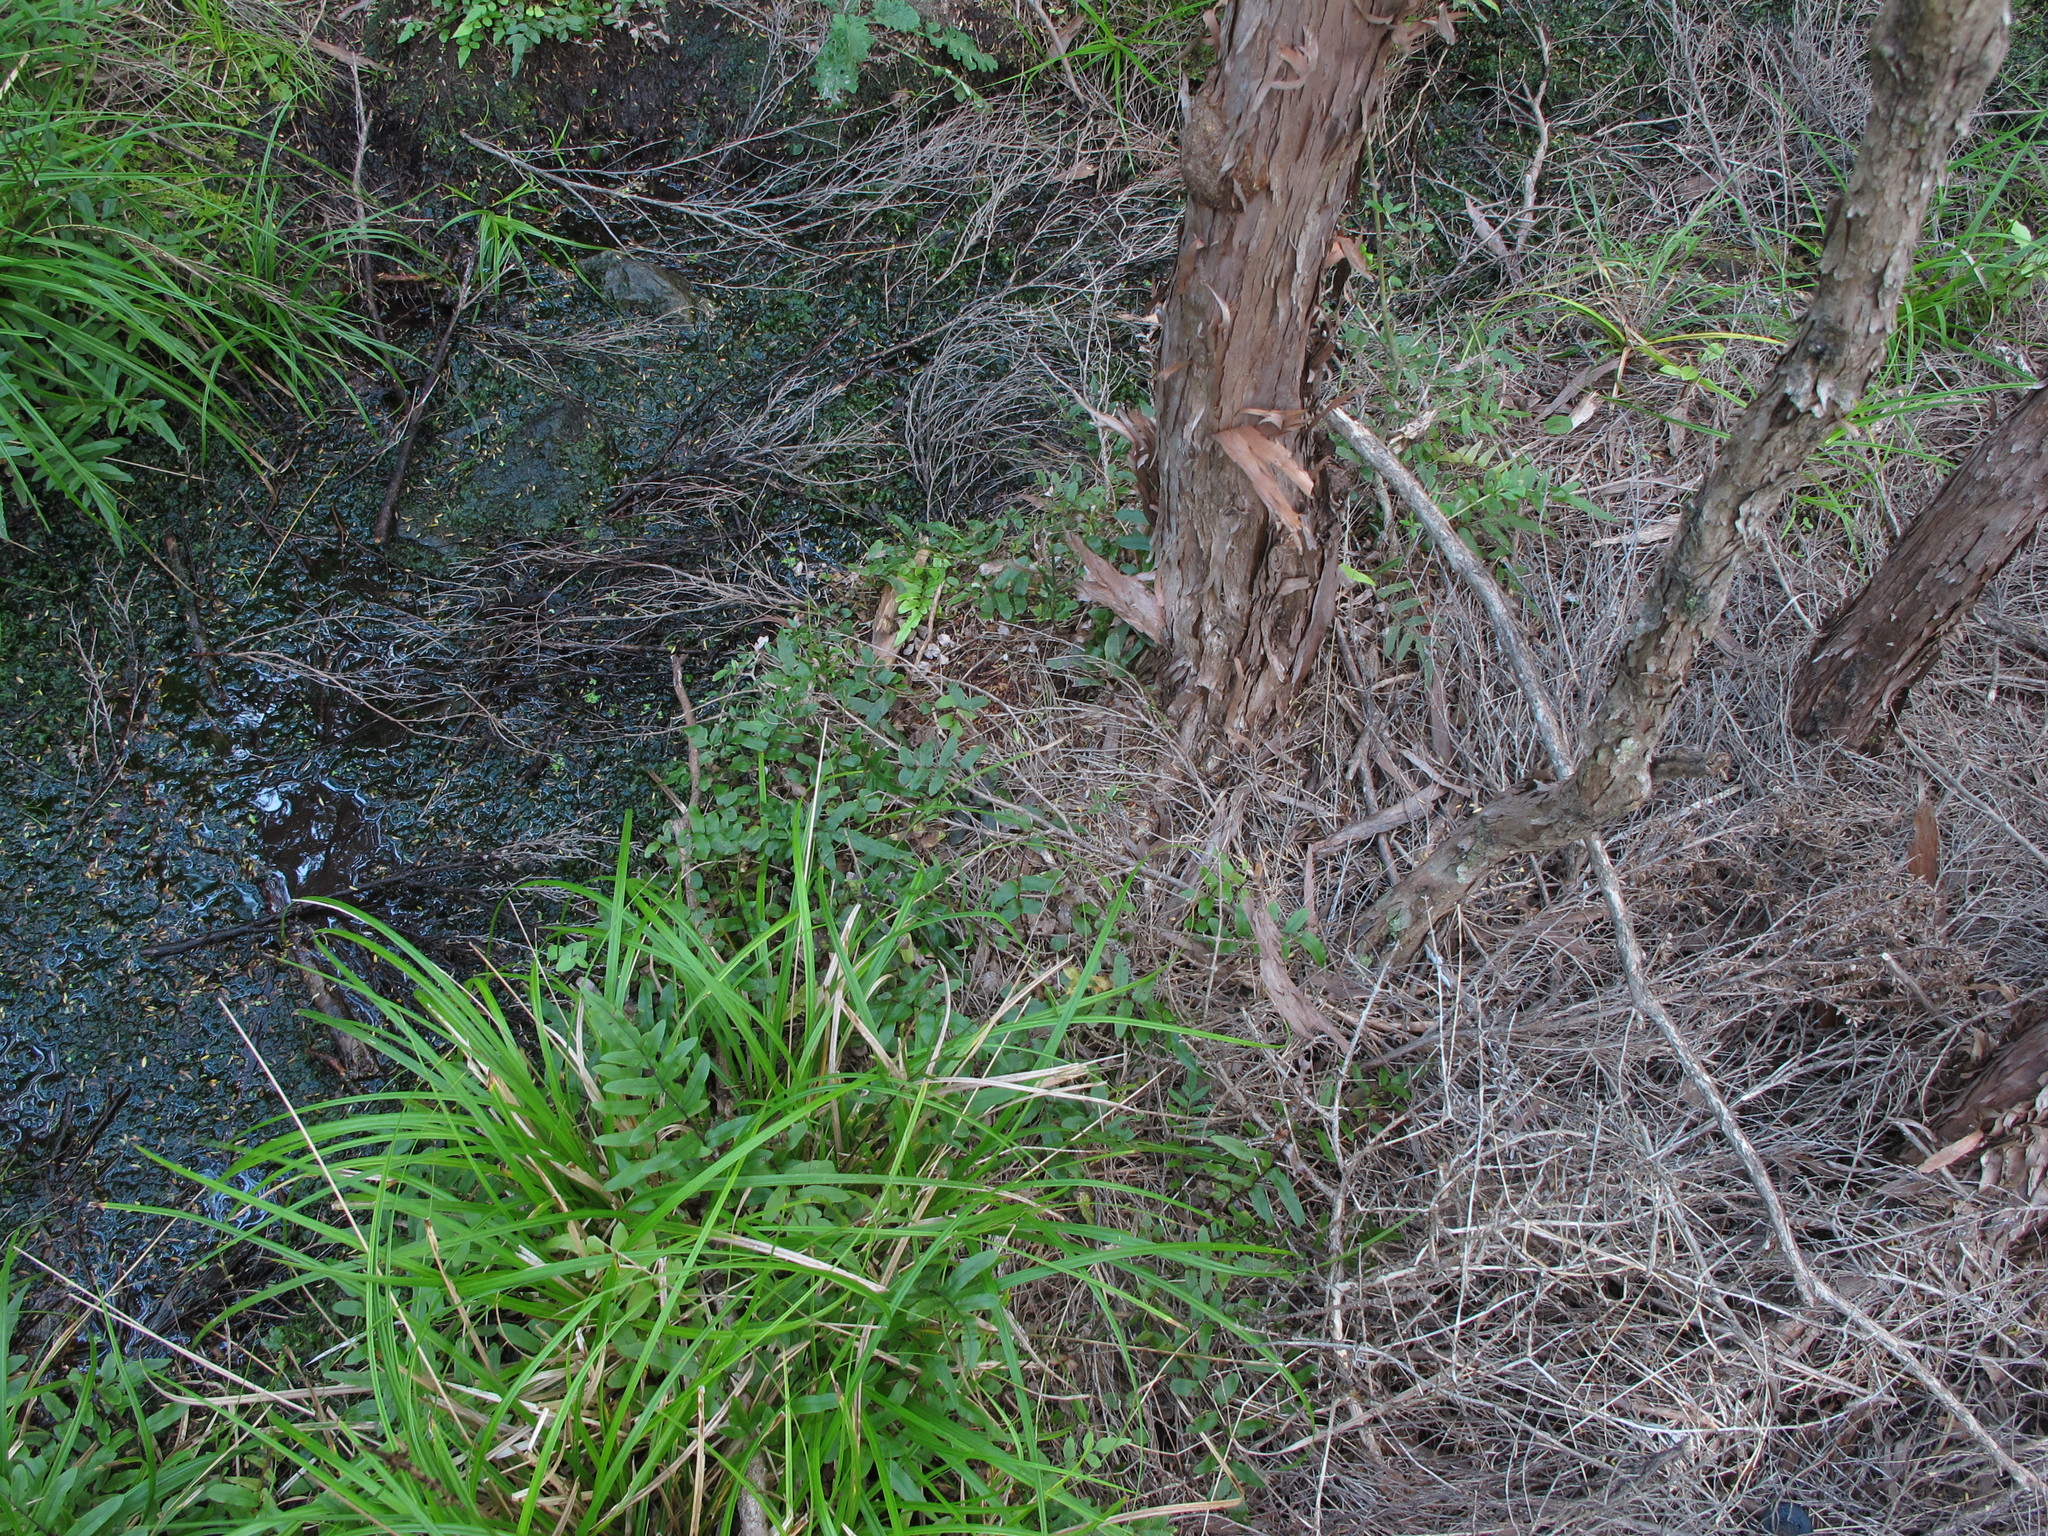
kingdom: Plantae
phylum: Tracheophyta
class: Polypodiopsida
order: Polypodiales
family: Blechnaceae
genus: Parablechnum
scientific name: Parablechnum minus
